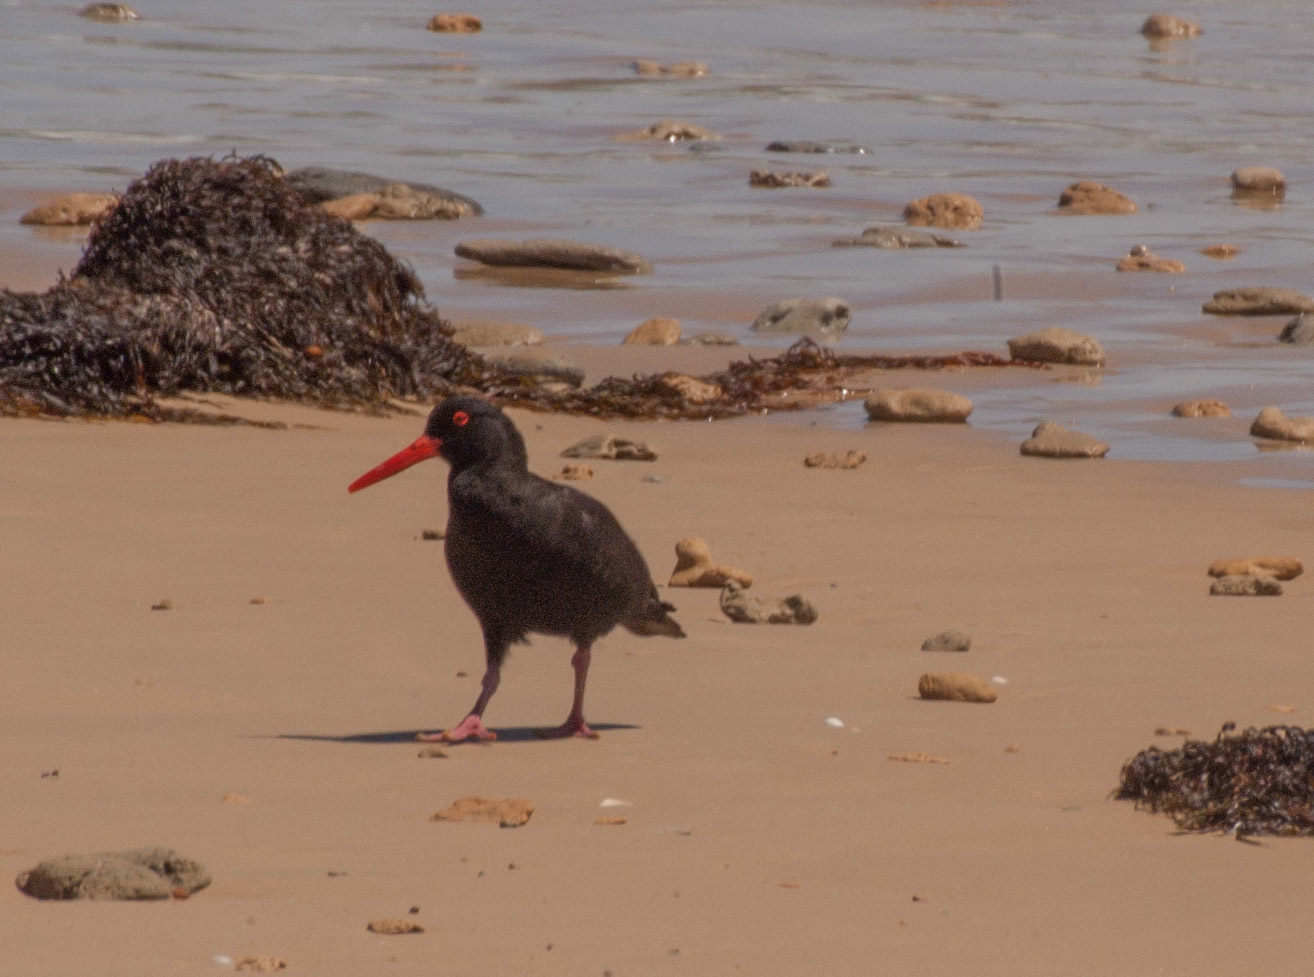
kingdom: Animalia
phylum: Chordata
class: Aves
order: Charadriiformes
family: Haematopodidae
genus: Haematopus
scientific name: Haematopus fuliginosus
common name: Sooty oystercatcher
